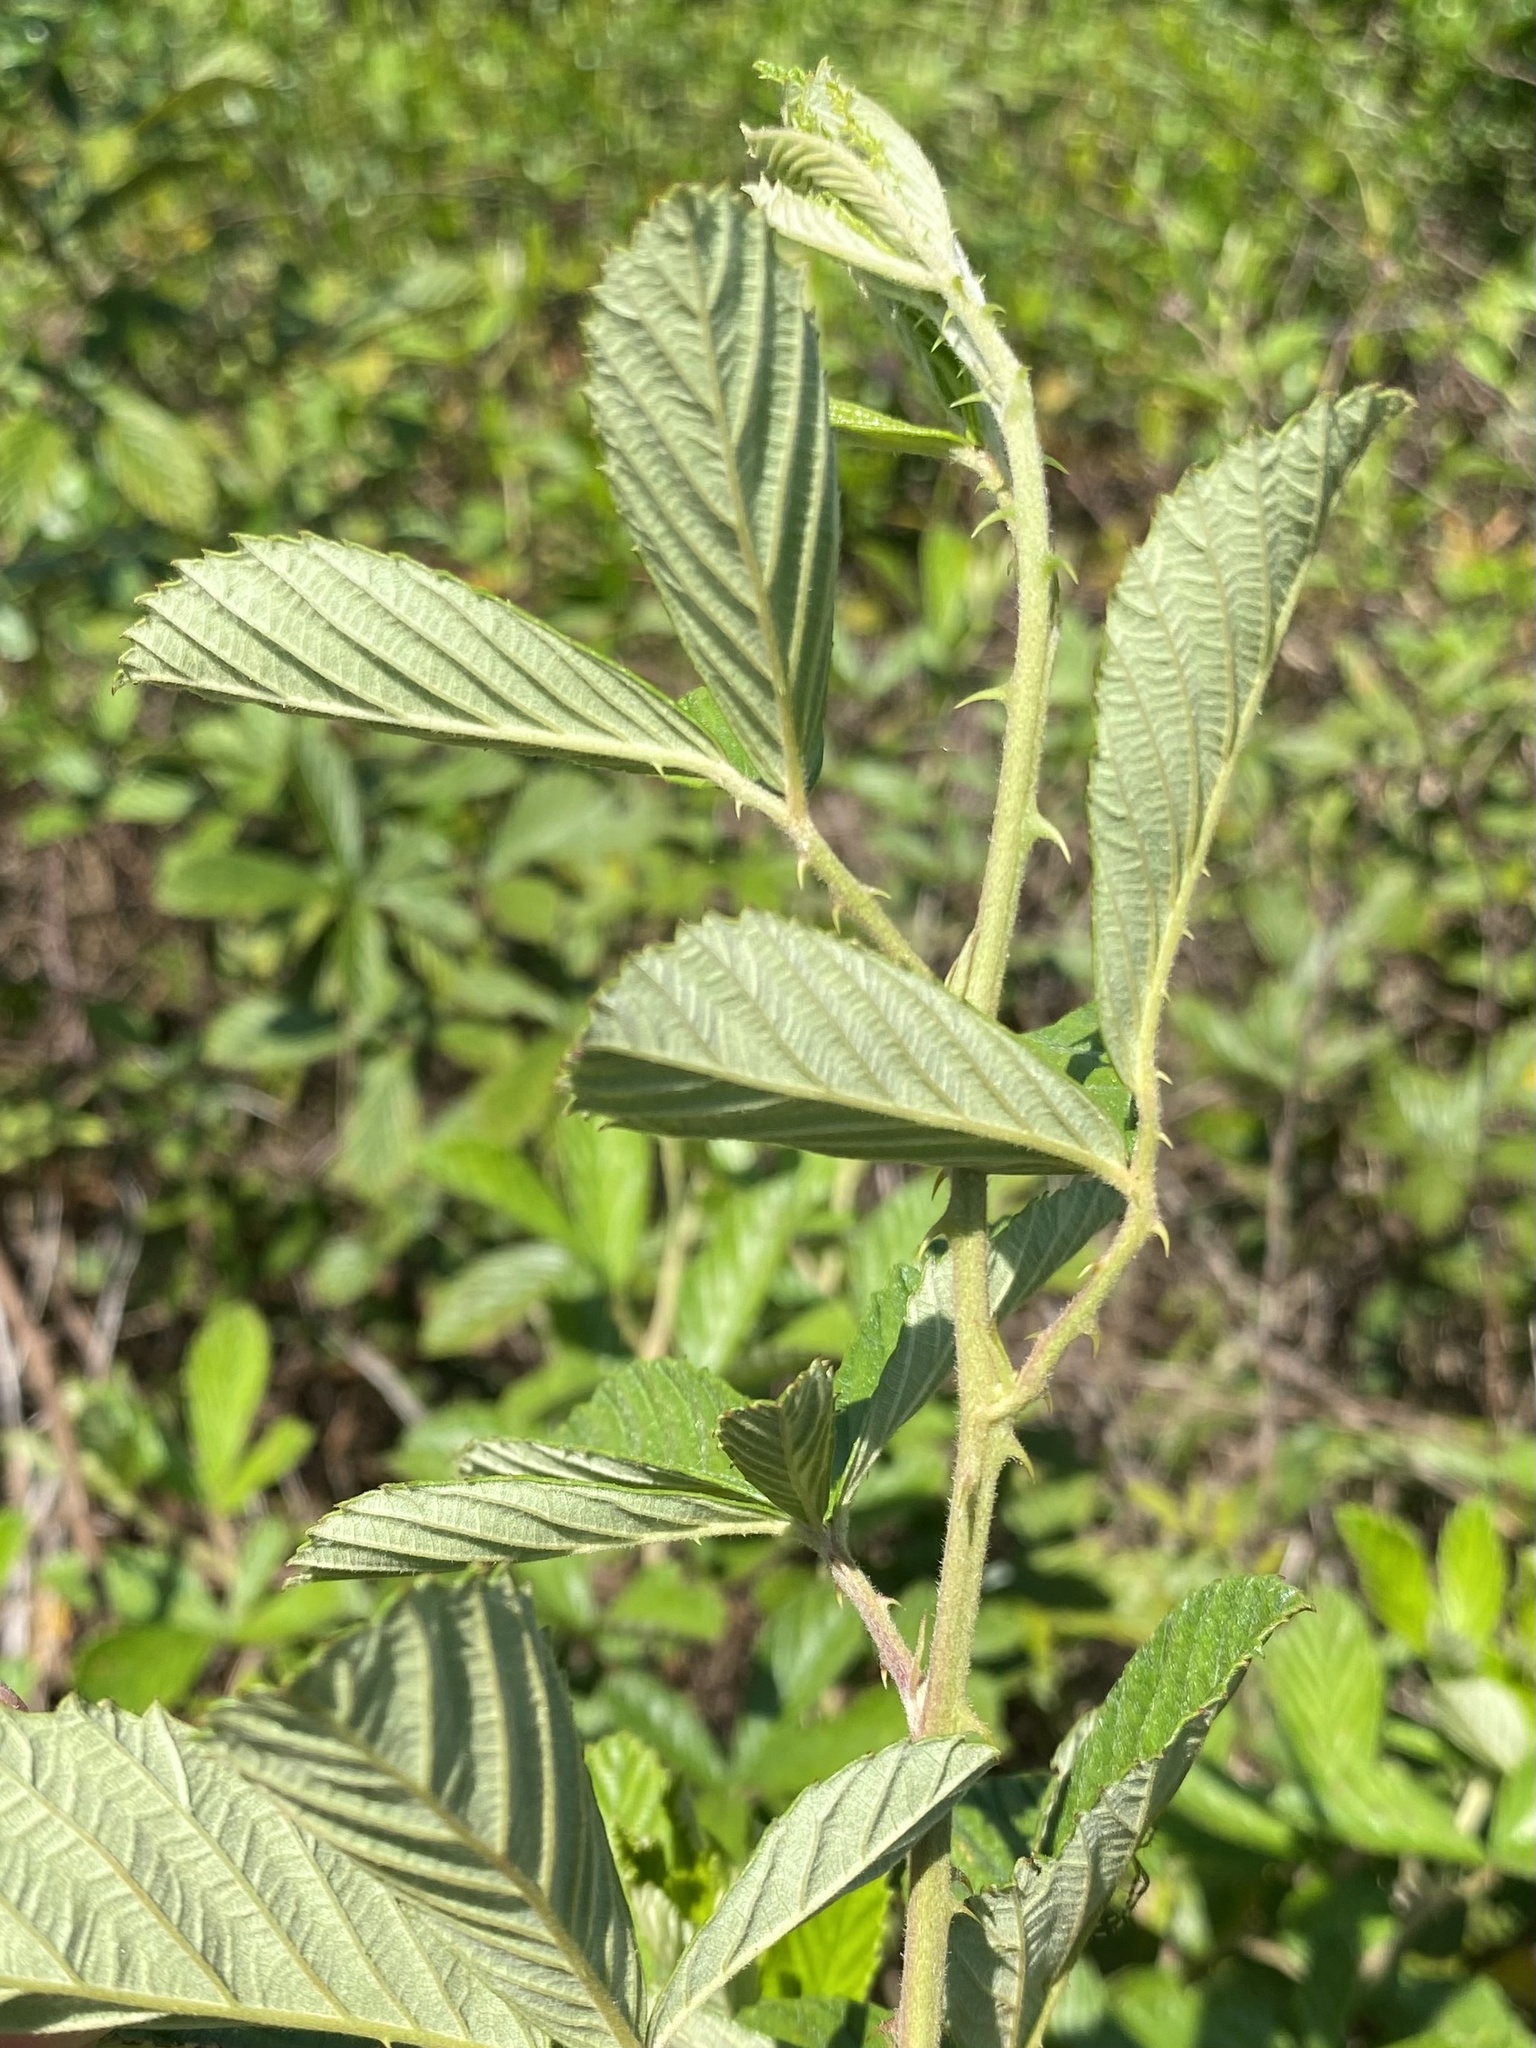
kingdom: Plantae
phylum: Tracheophyta
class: Magnoliopsida
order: Rosales
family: Rosaceae
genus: Rubus
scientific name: Rubus cuneifolius
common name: American bramble
